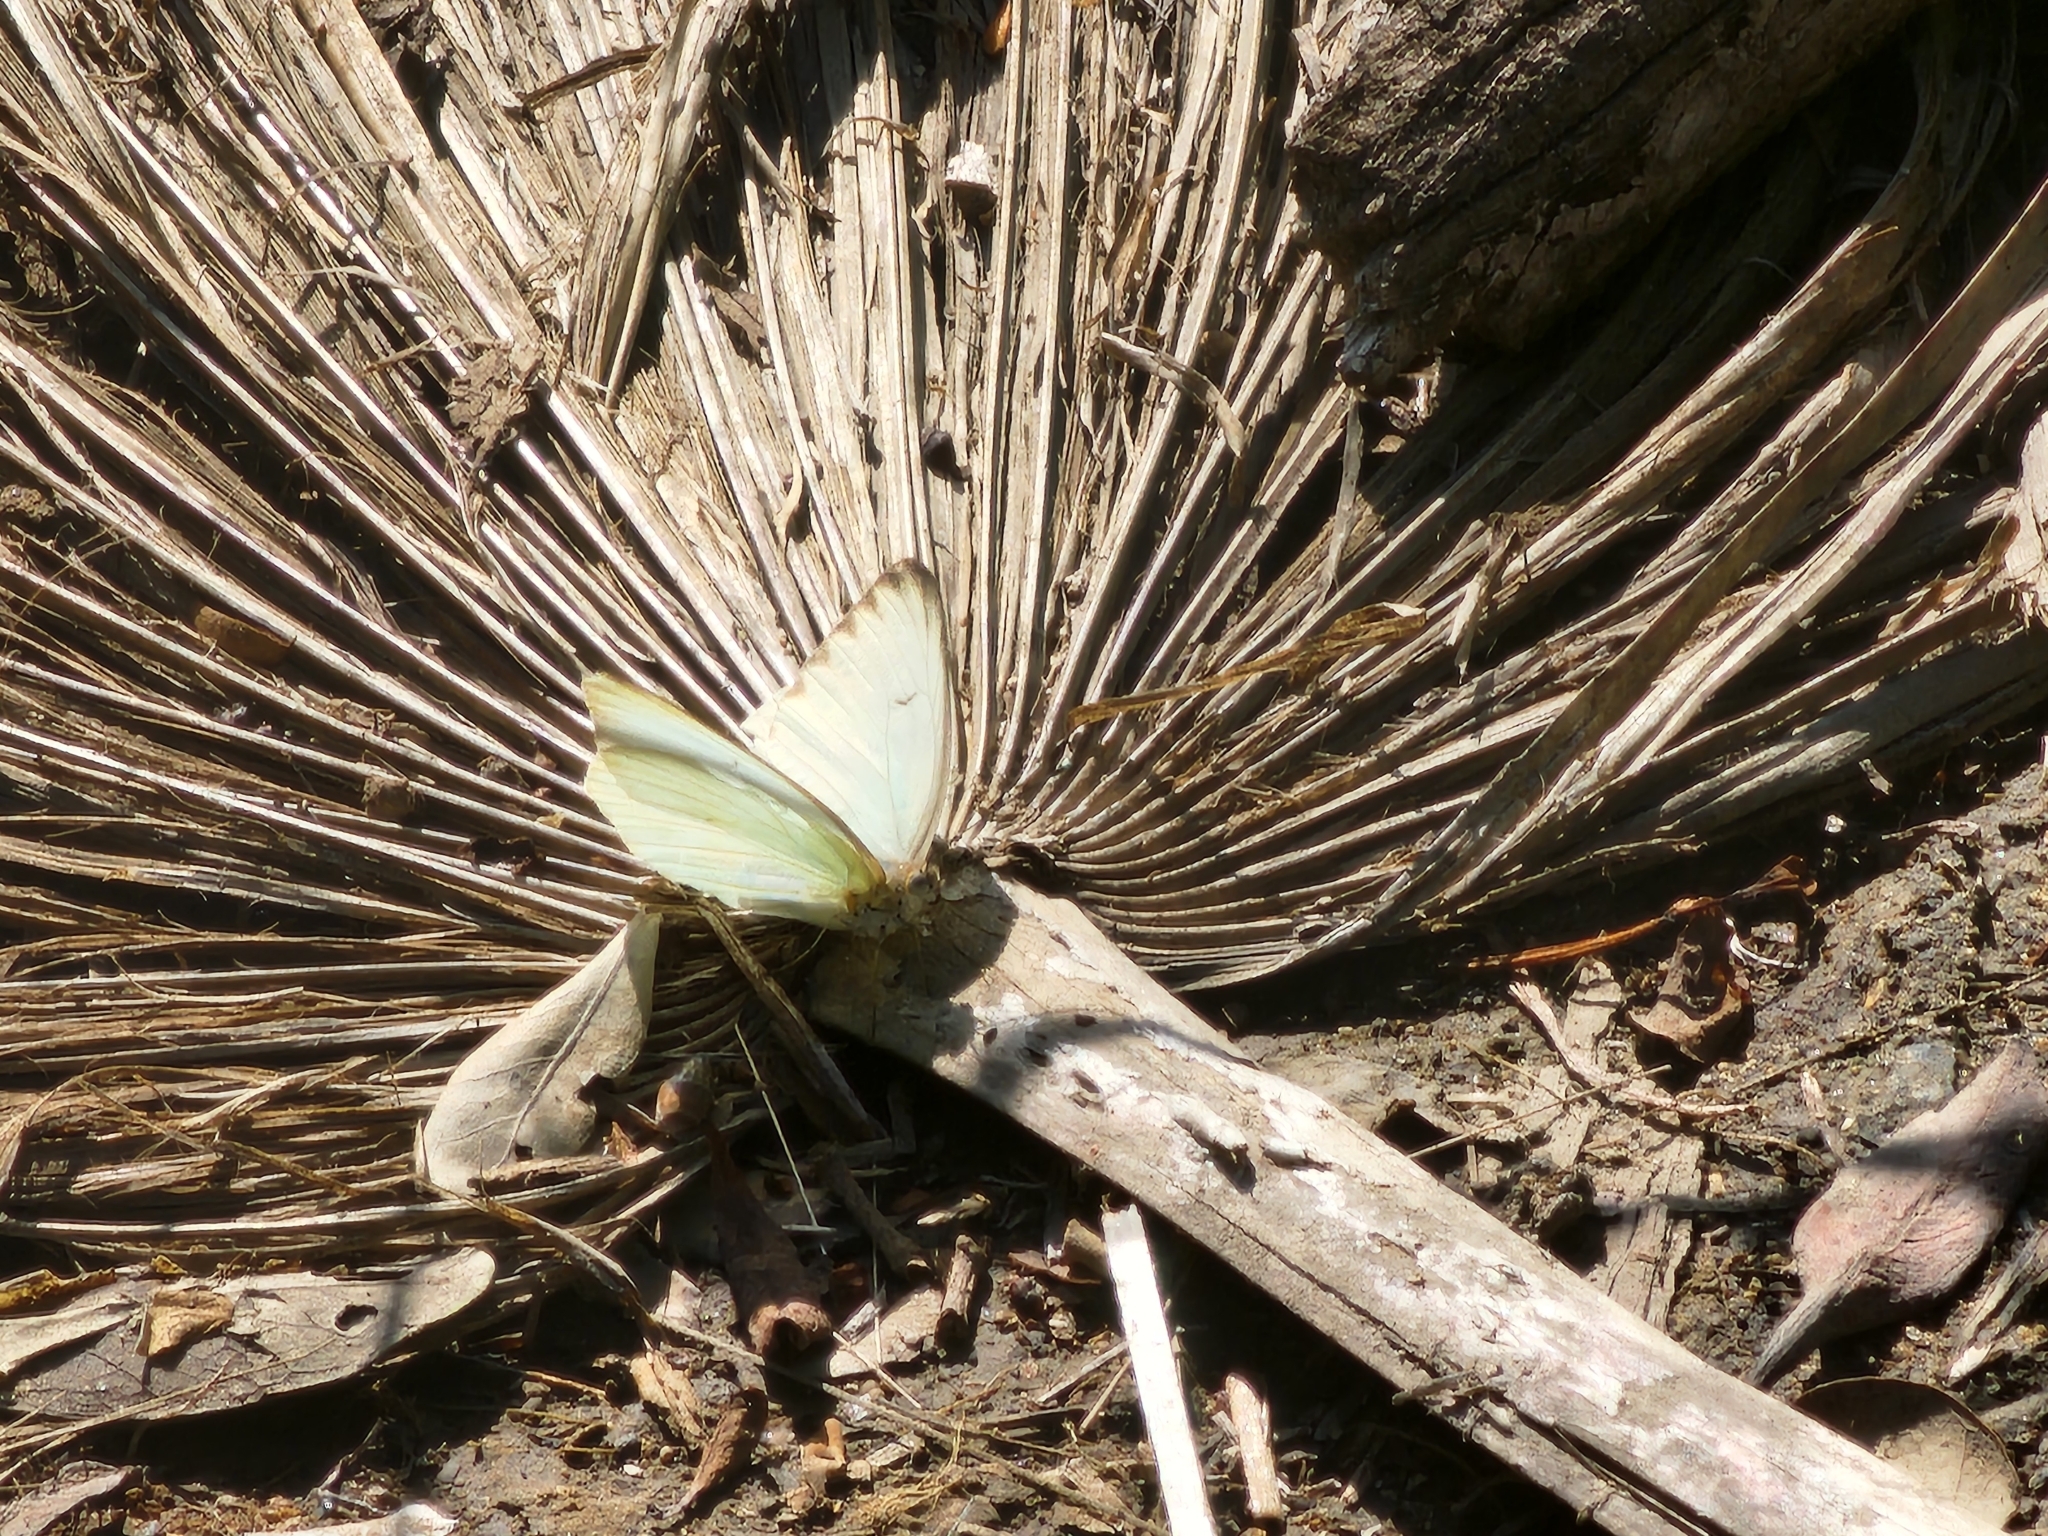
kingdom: Animalia
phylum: Arthropoda
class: Insecta
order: Lepidoptera
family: Pieridae
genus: Ascia
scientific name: Ascia monuste
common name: Great southern white
